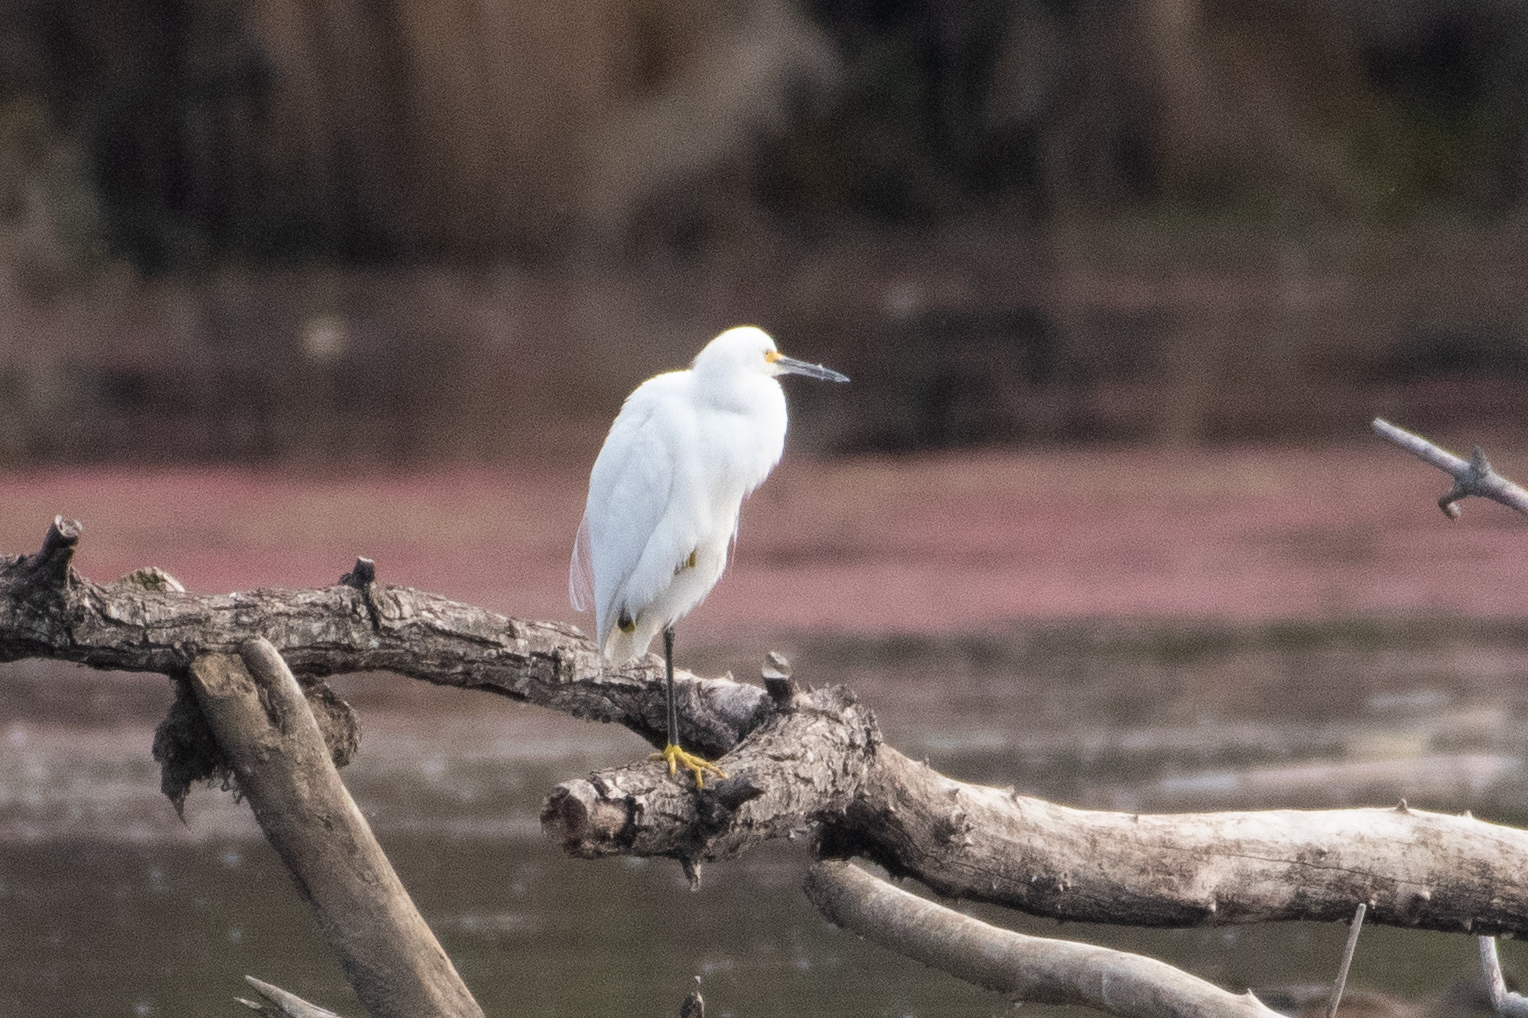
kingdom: Animalia
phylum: Chordata
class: Aves
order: Pelecaniformes
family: Ardeidae
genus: Egretta
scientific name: Egretta thula
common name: Snowy egret
